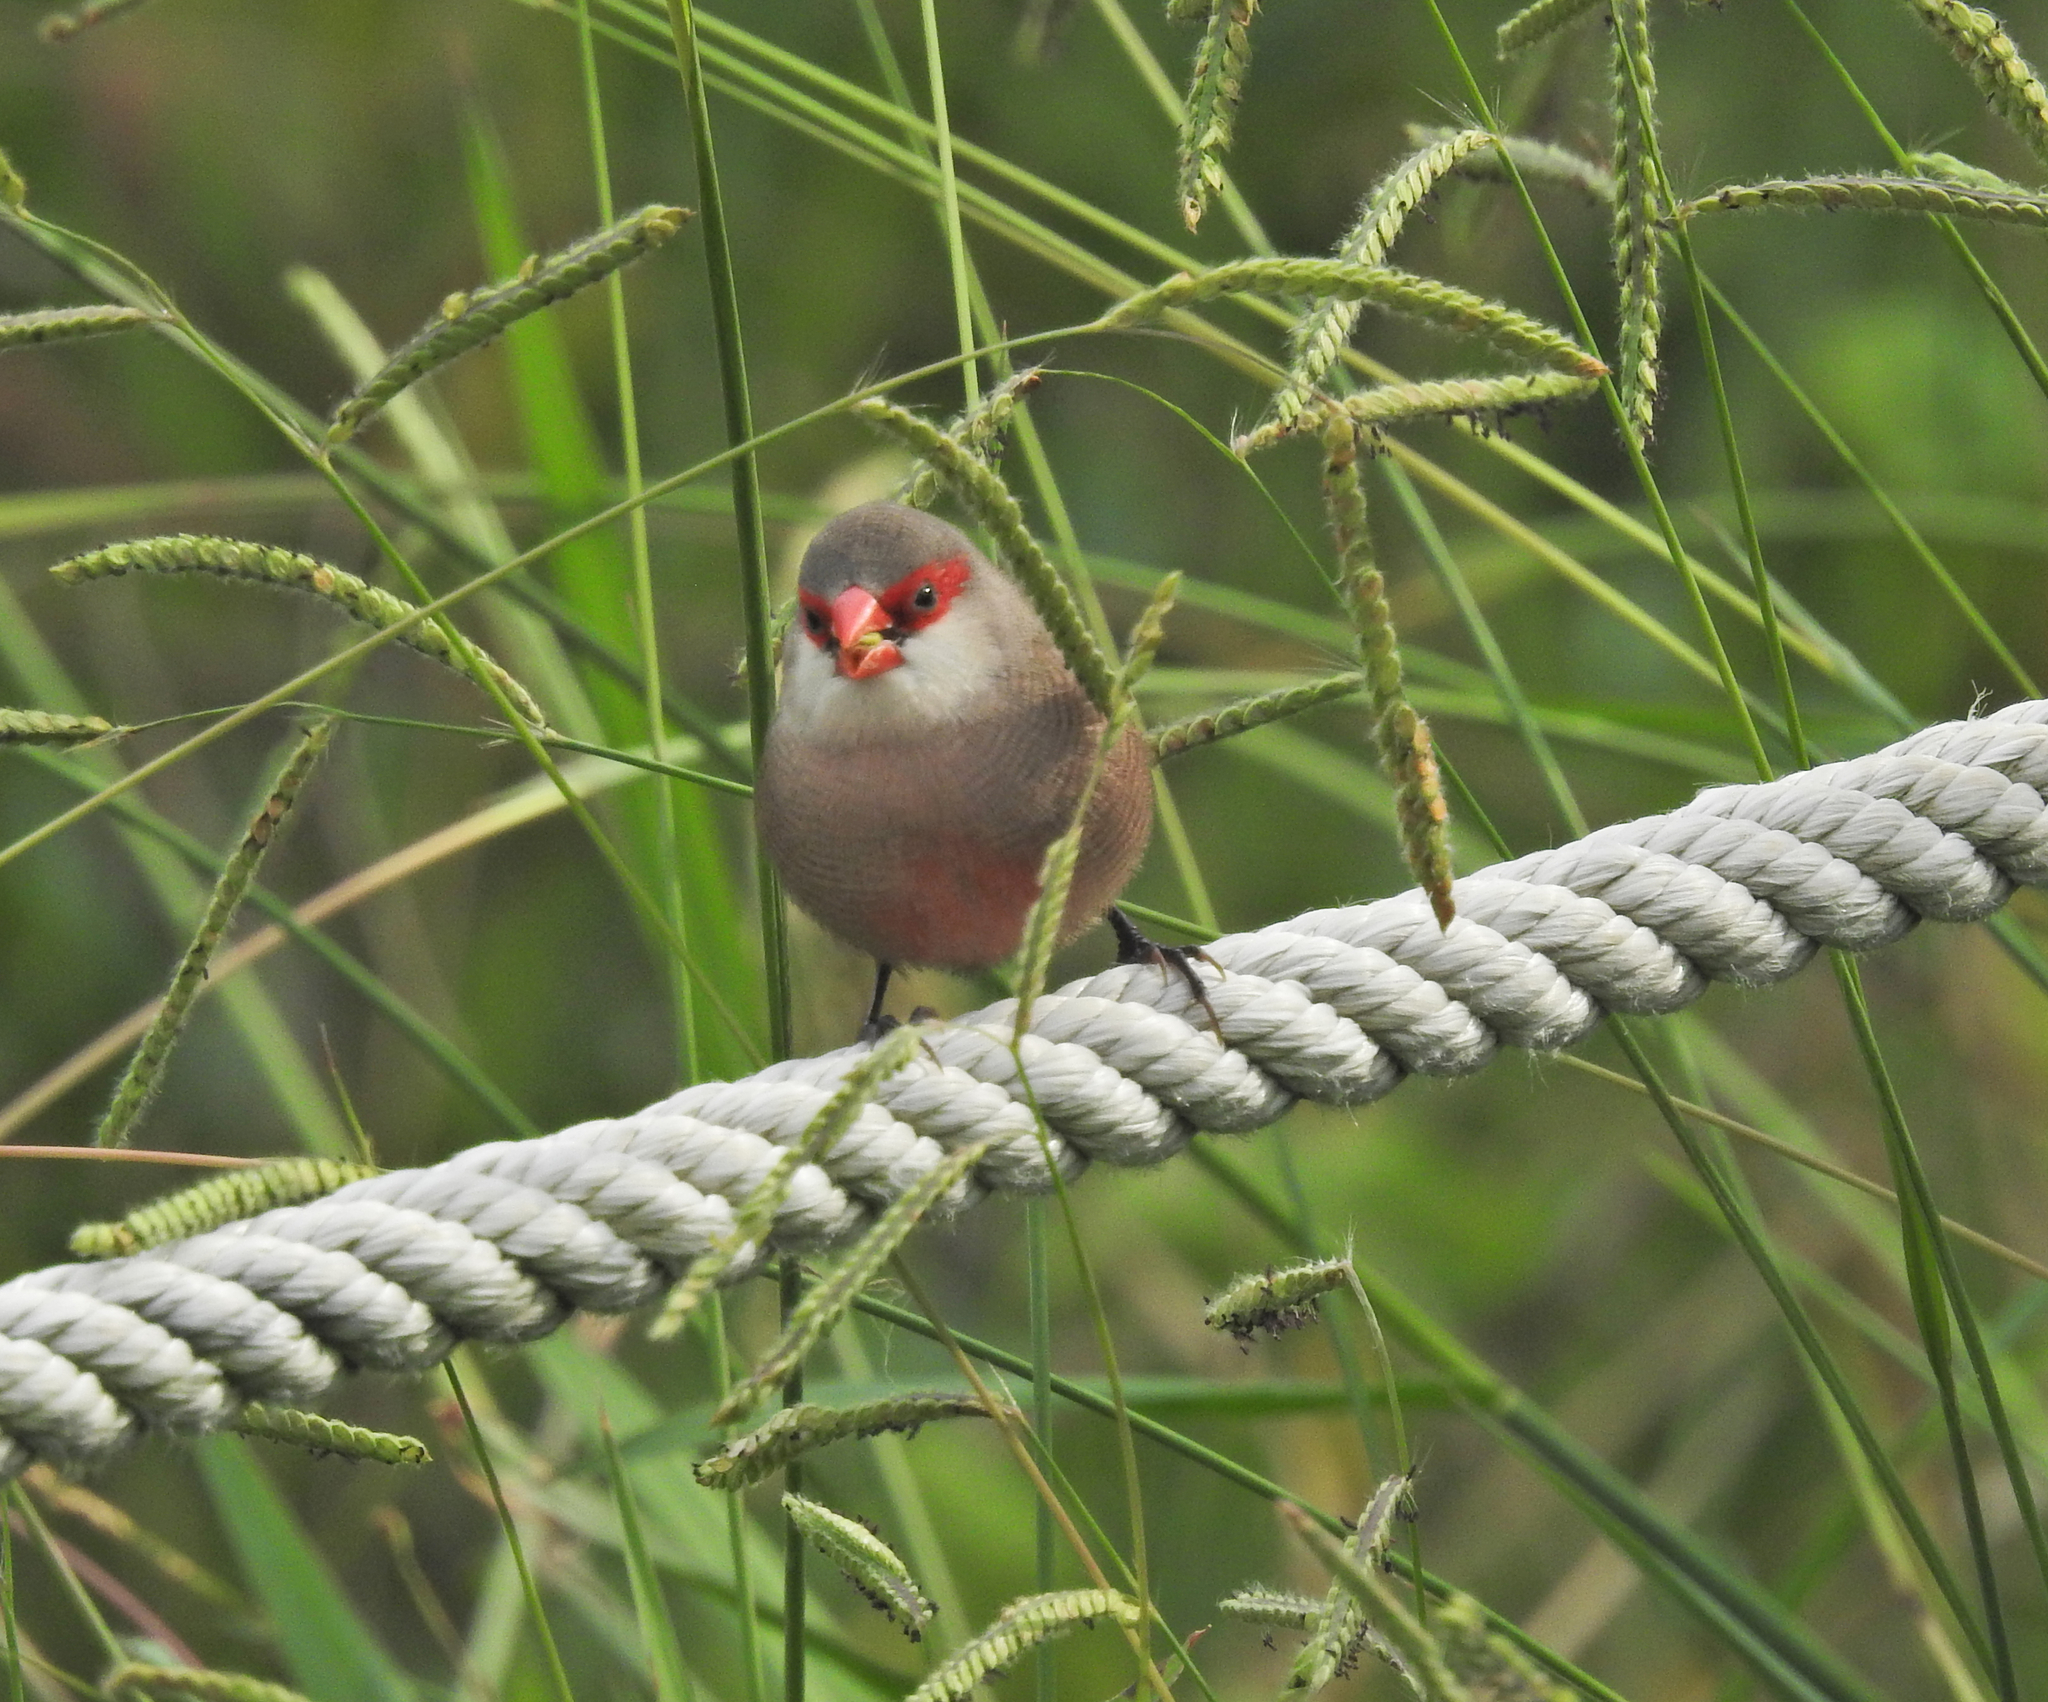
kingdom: Animalia
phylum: Chordata
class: Aves
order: Passeriformes
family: Estrildidae
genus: Estrilda
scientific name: Estrilda astrild
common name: Common waxbill
